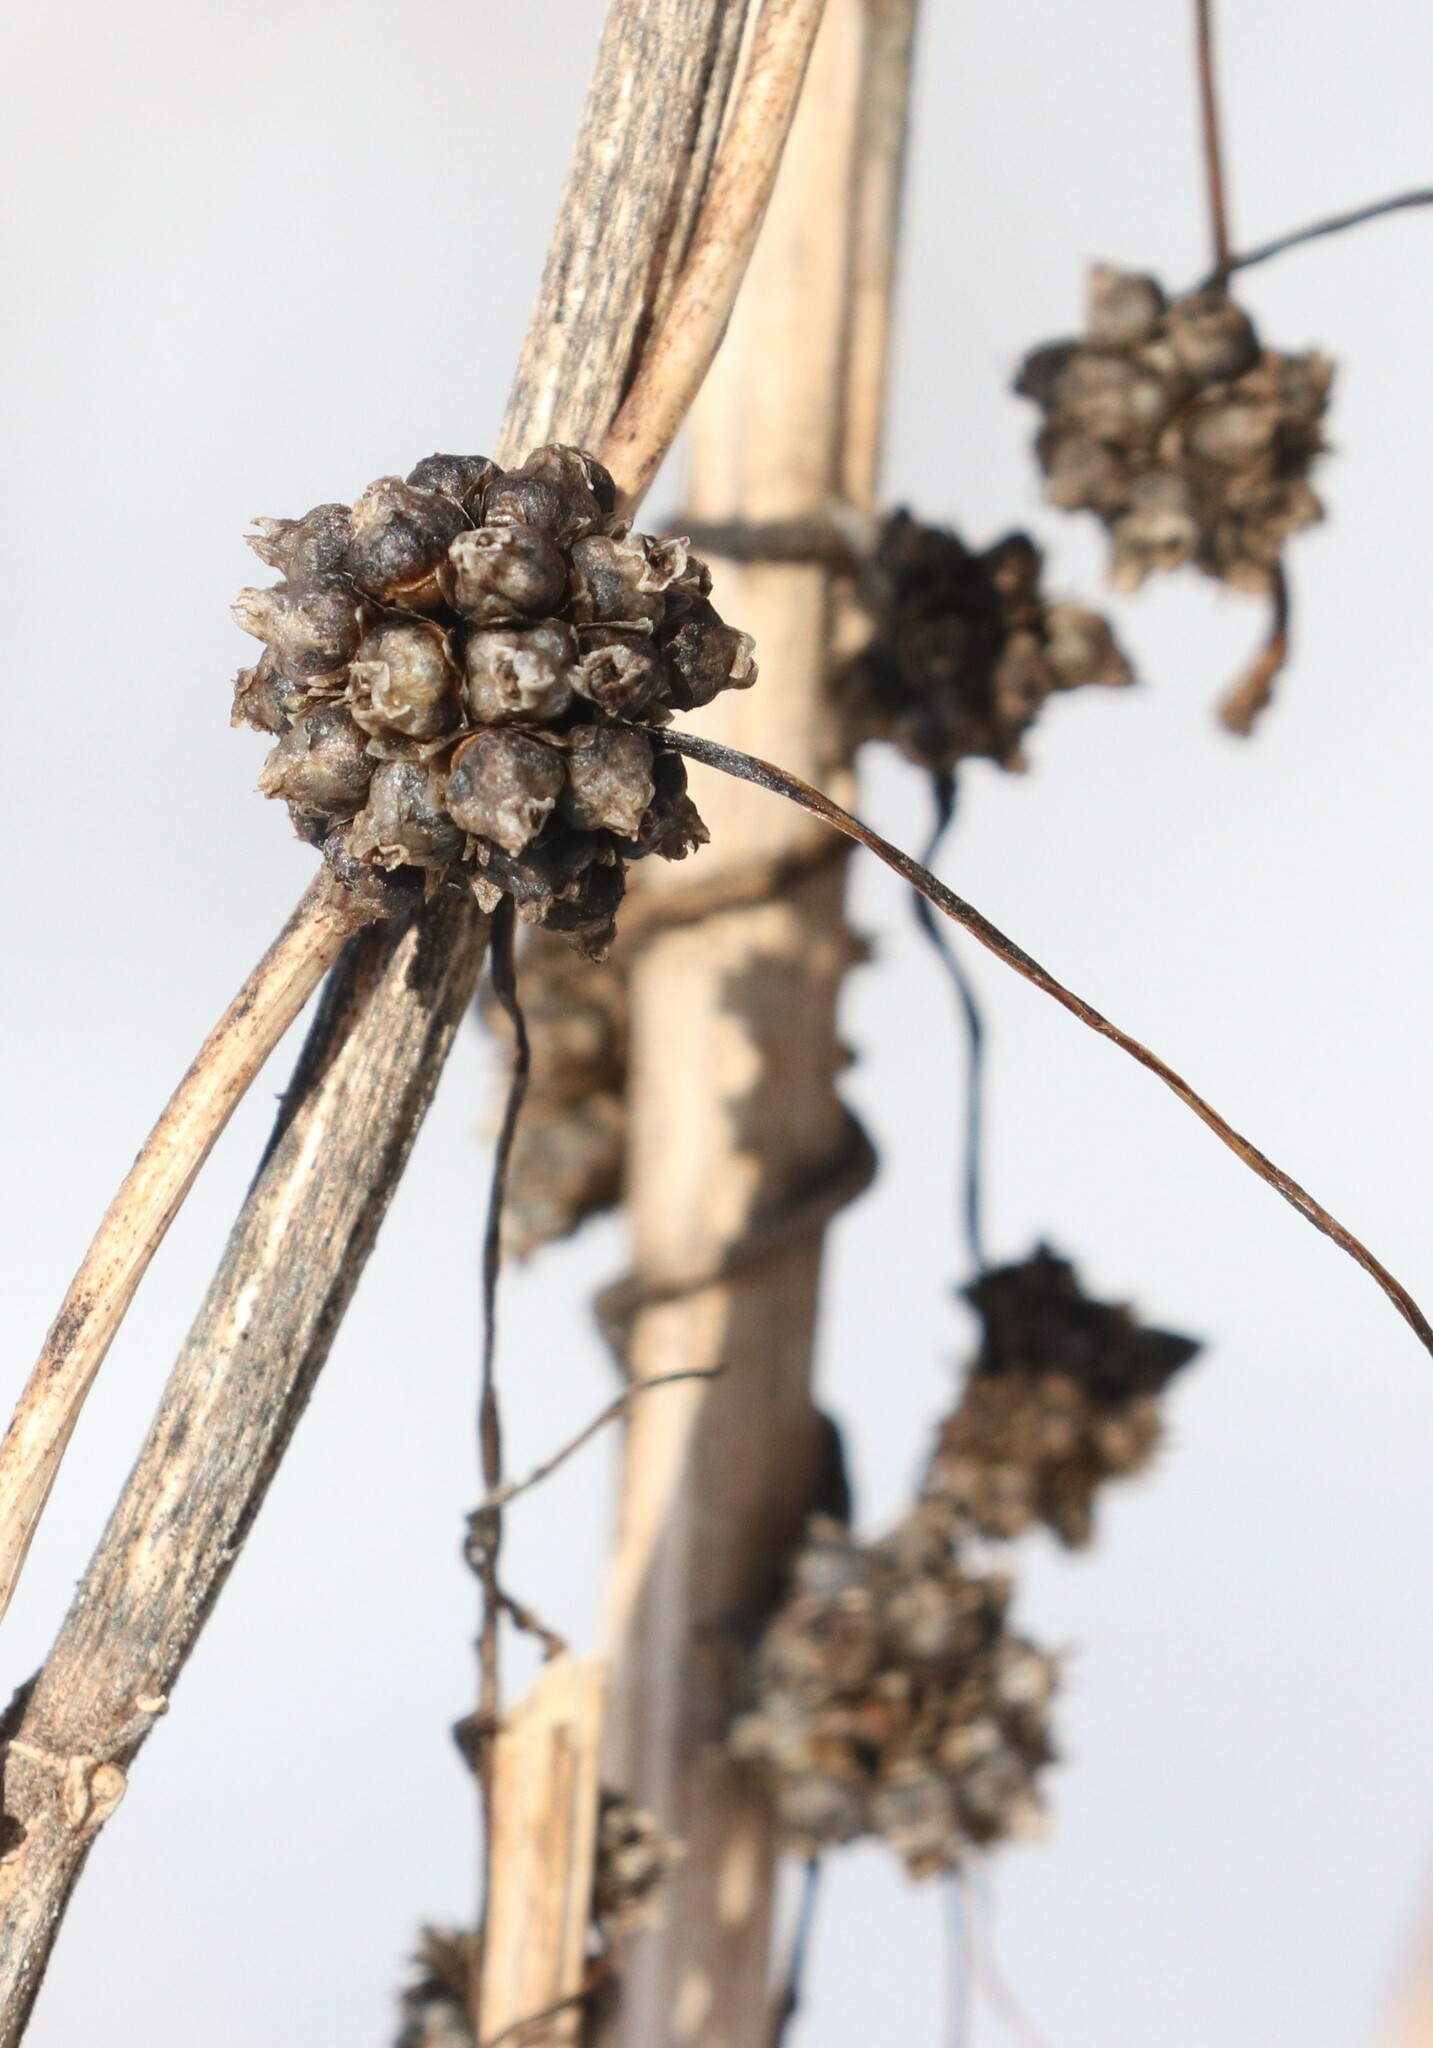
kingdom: Plantae
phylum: Tracheophyta
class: Magnoliopsida
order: Solanales
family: Convolvulaceae
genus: Cuscuta
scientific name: Cuscuta europaea
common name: Greater dodder
